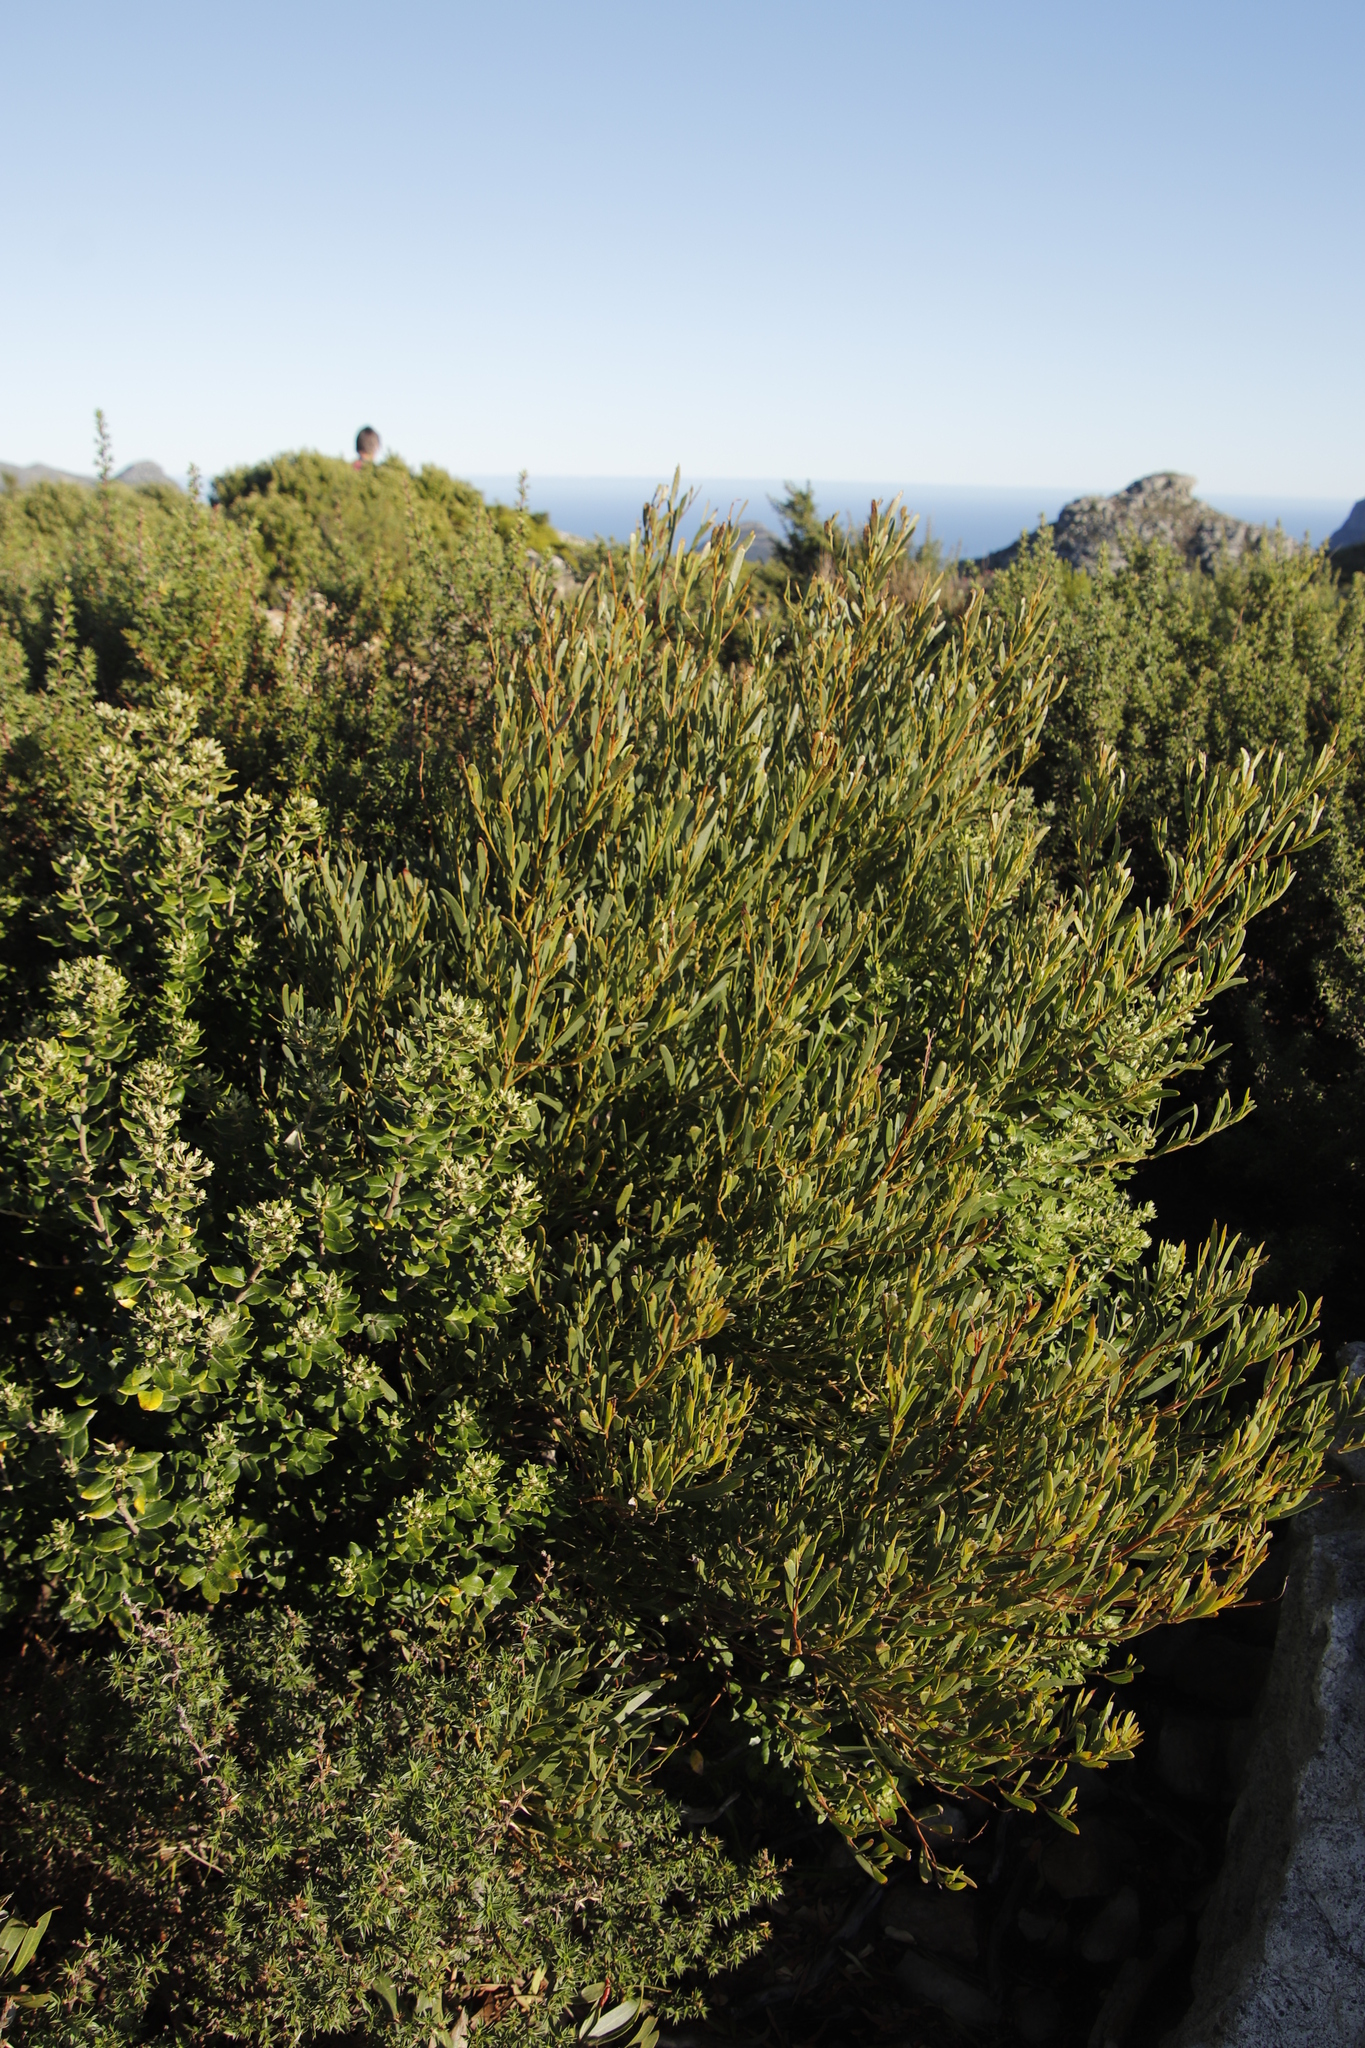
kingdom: Plantae
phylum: Tracheophyta
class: Magnoliopsida
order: Fabales
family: Fabaceae
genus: Acacia
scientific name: Acacia cyclops
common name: Coastal wattle
